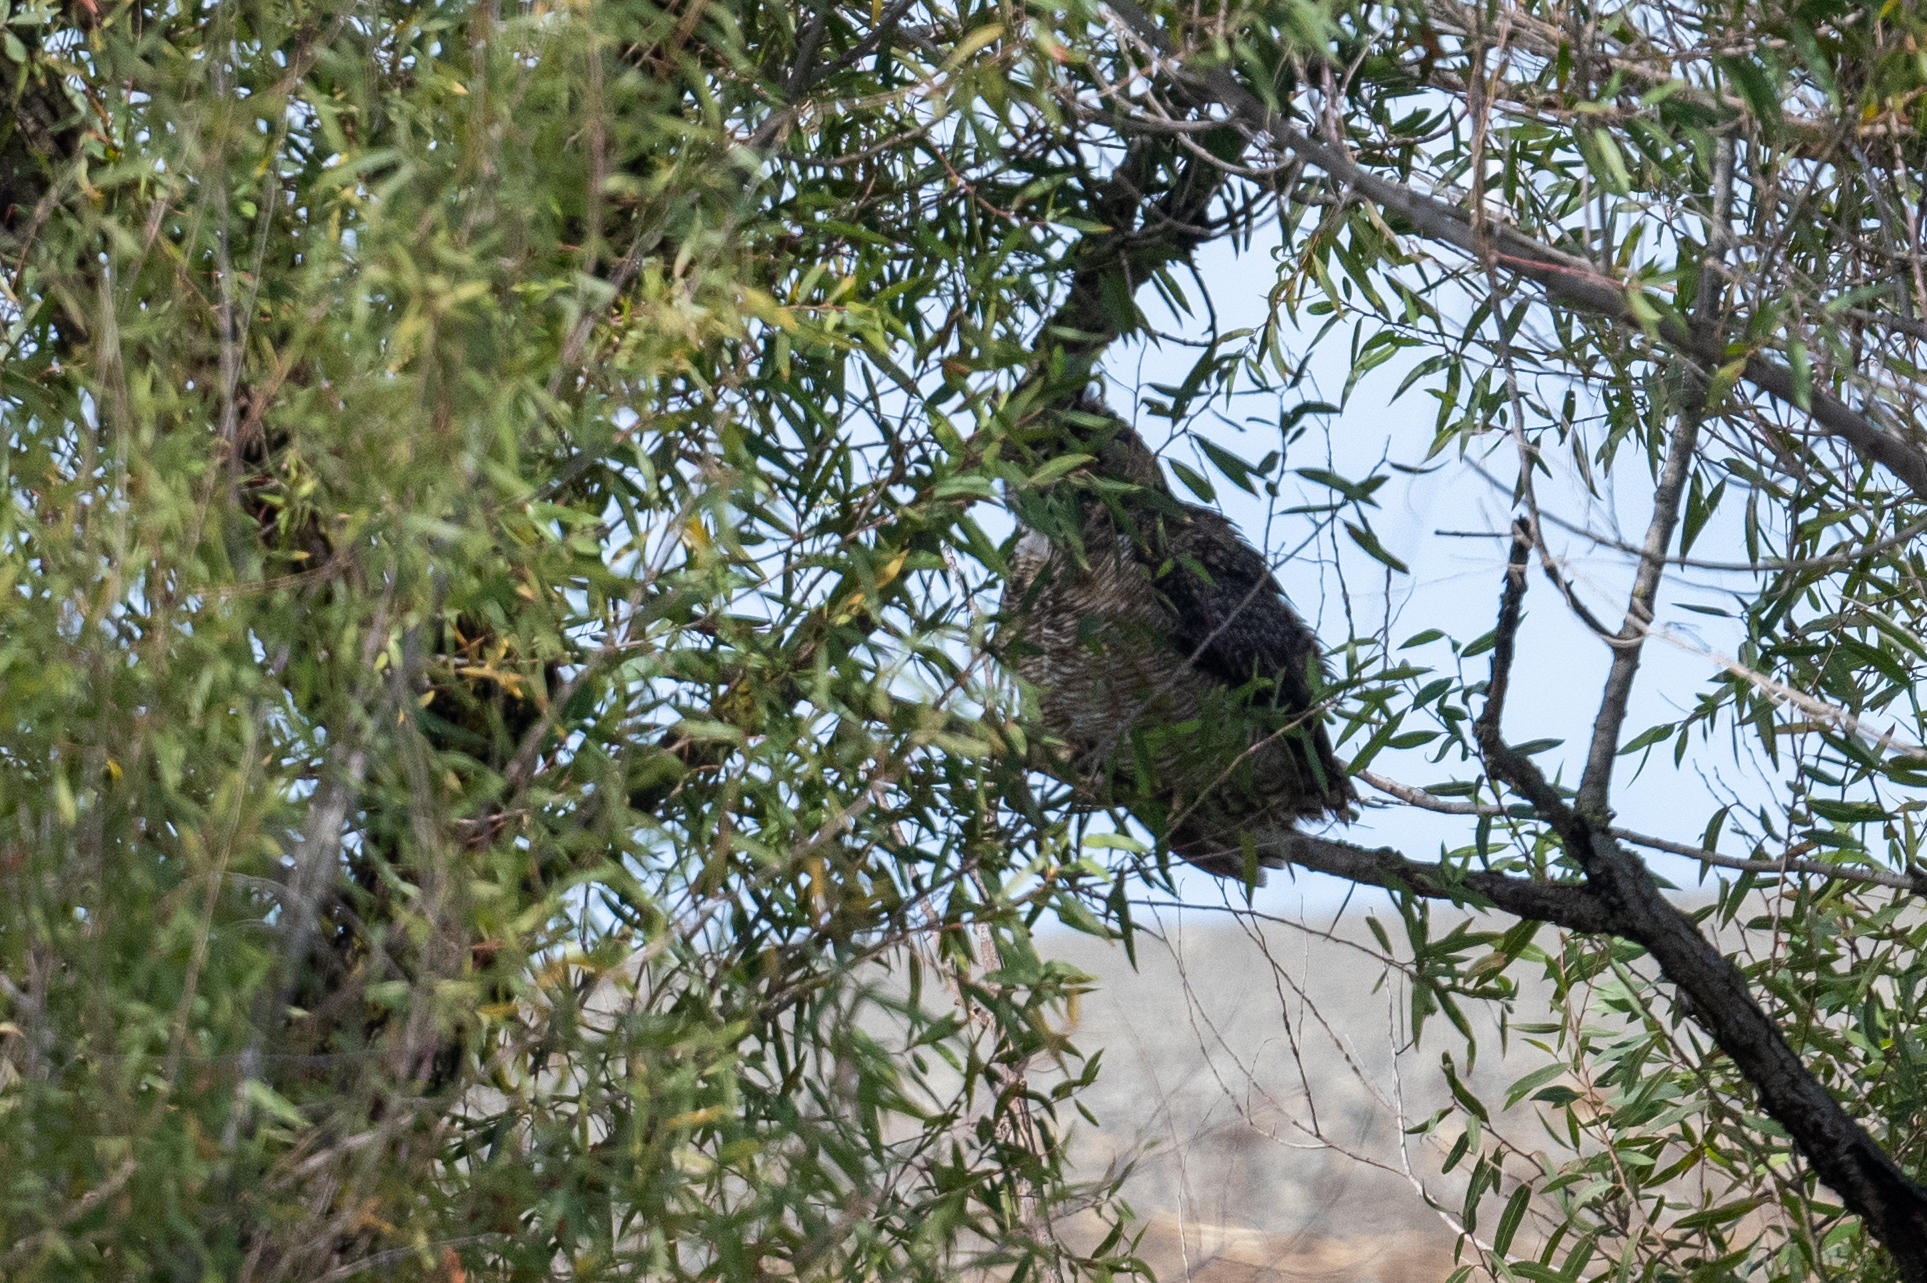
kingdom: Animalia
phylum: Chordata
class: Aves
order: Strigiformes
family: Strigidae
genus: Bubo
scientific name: Bubo virginianus
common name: Great horned owl
